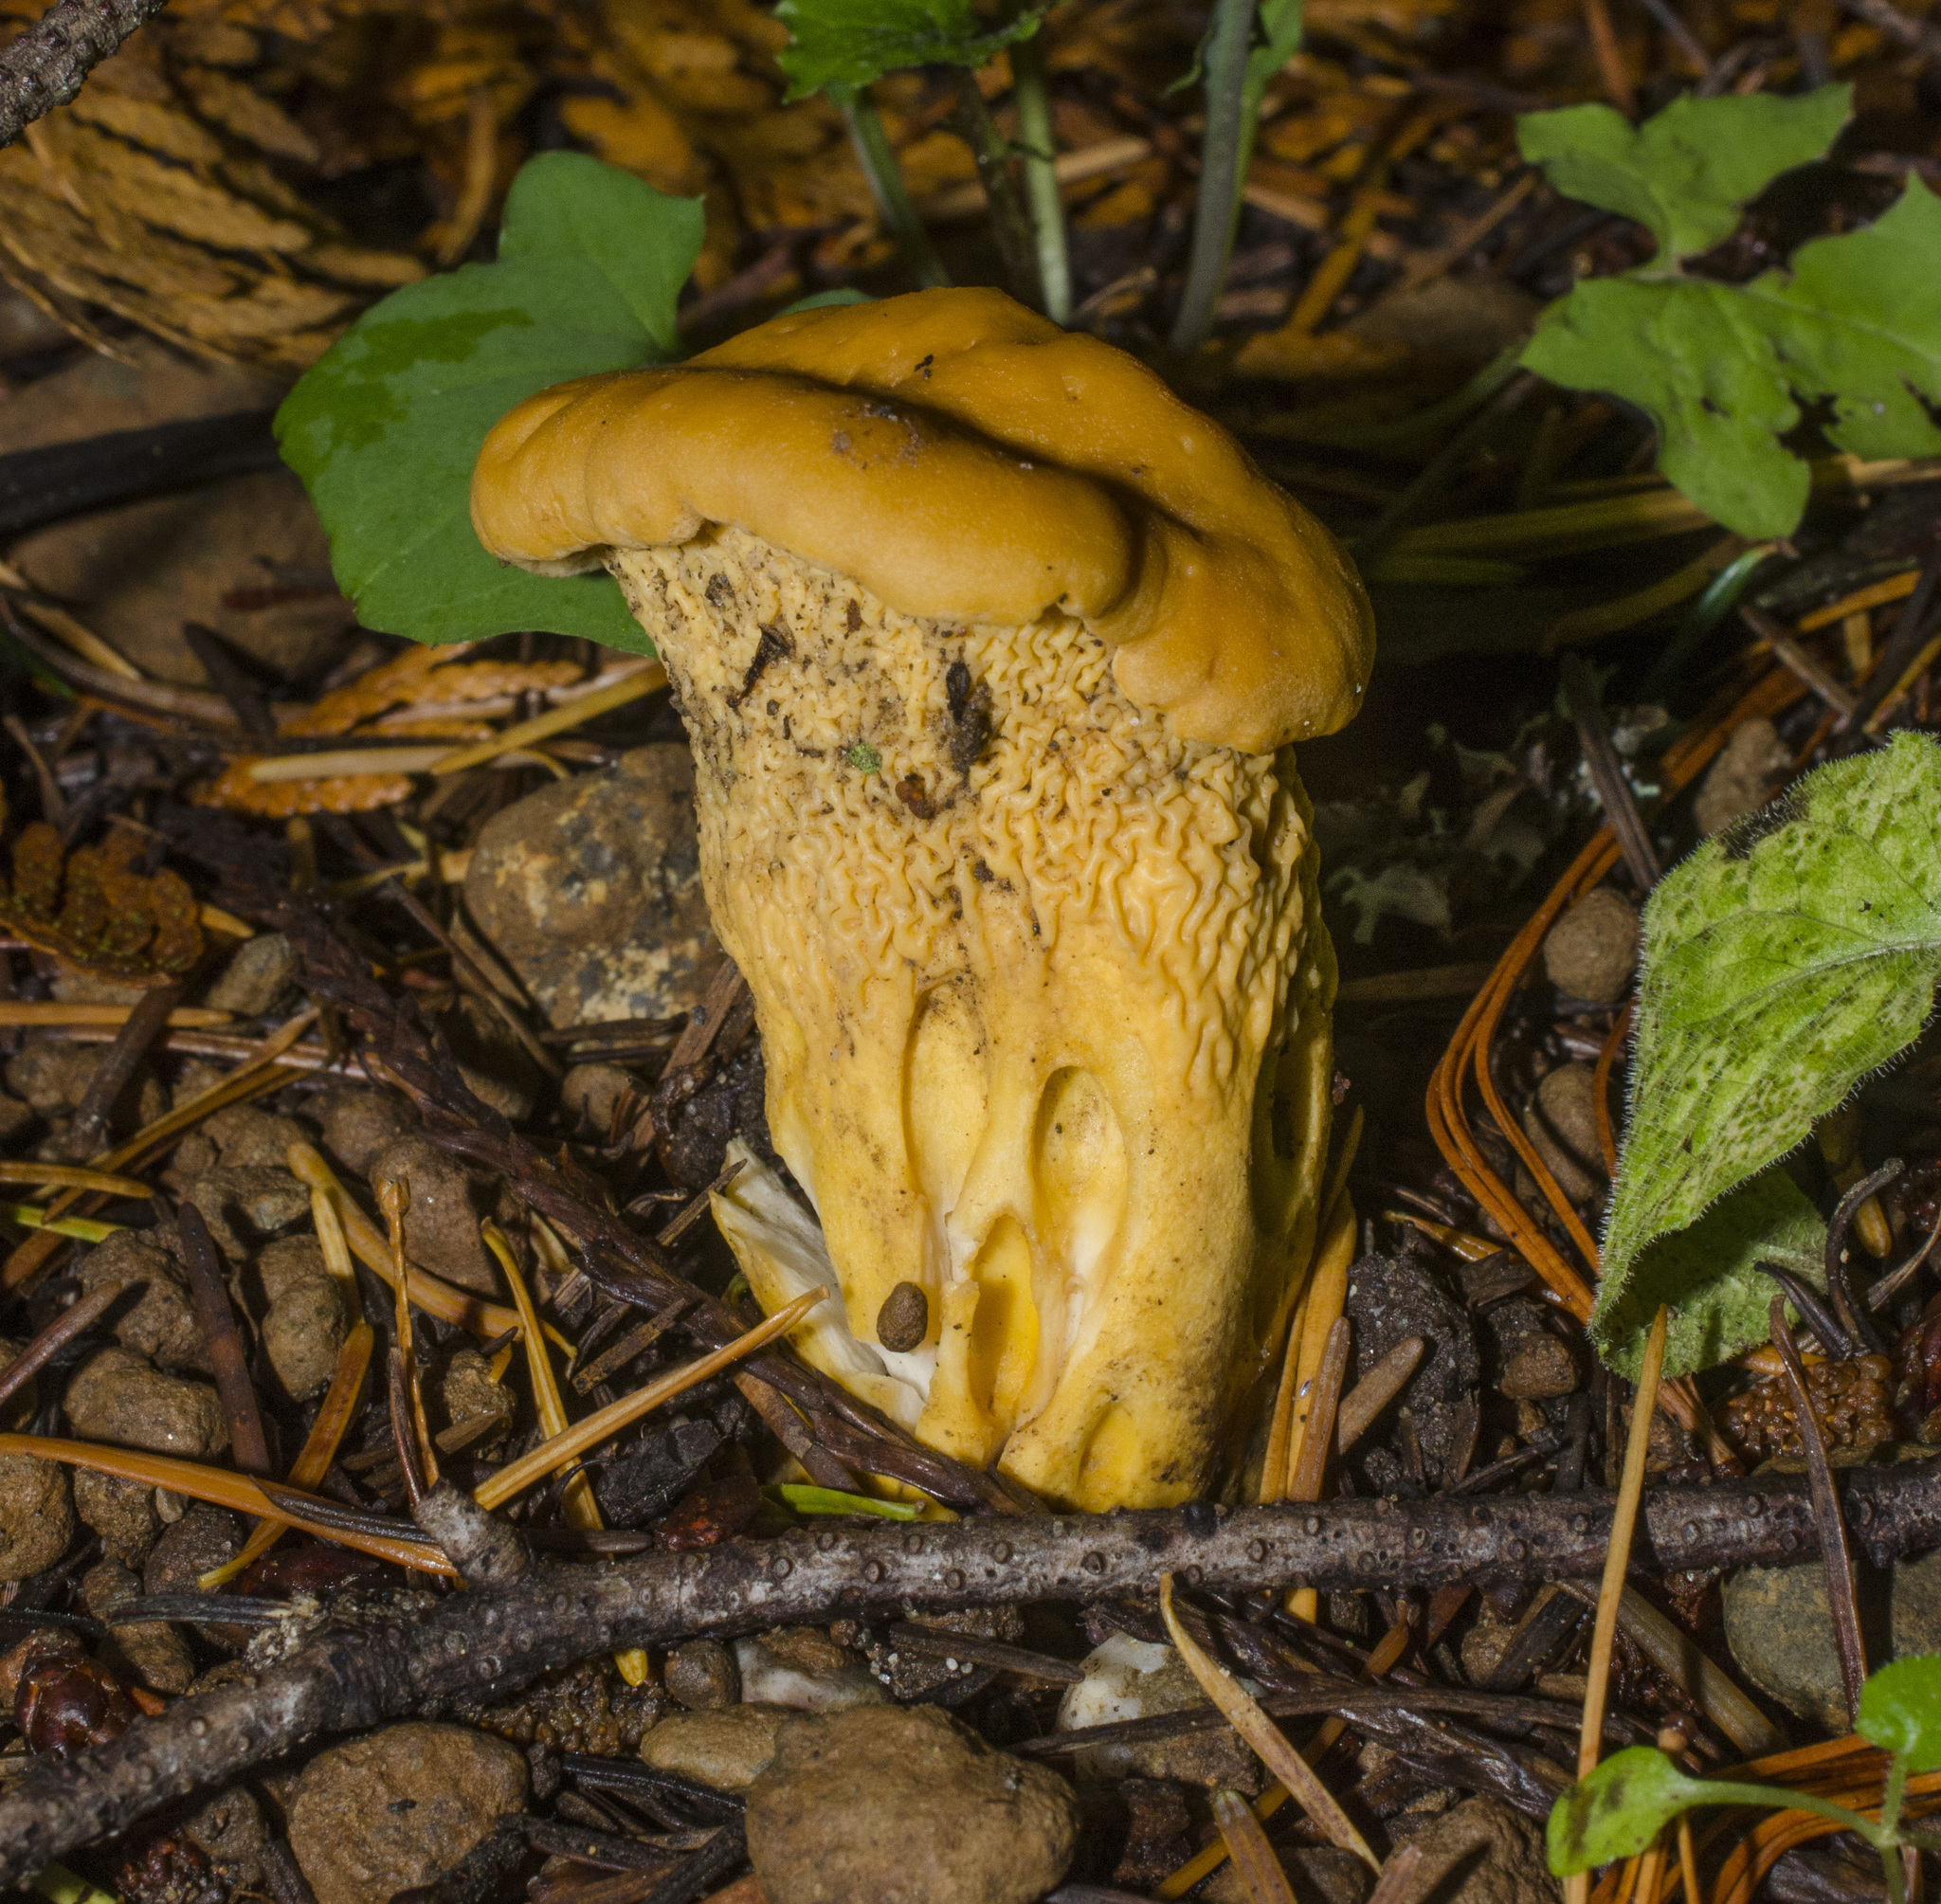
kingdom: Fungi
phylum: Basidiomycota
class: Agaricomycetes
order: Cantharellales
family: Hydnaceae
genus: Cantharellus
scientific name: Cantharellus formosus
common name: Pacific golden chanterelle
